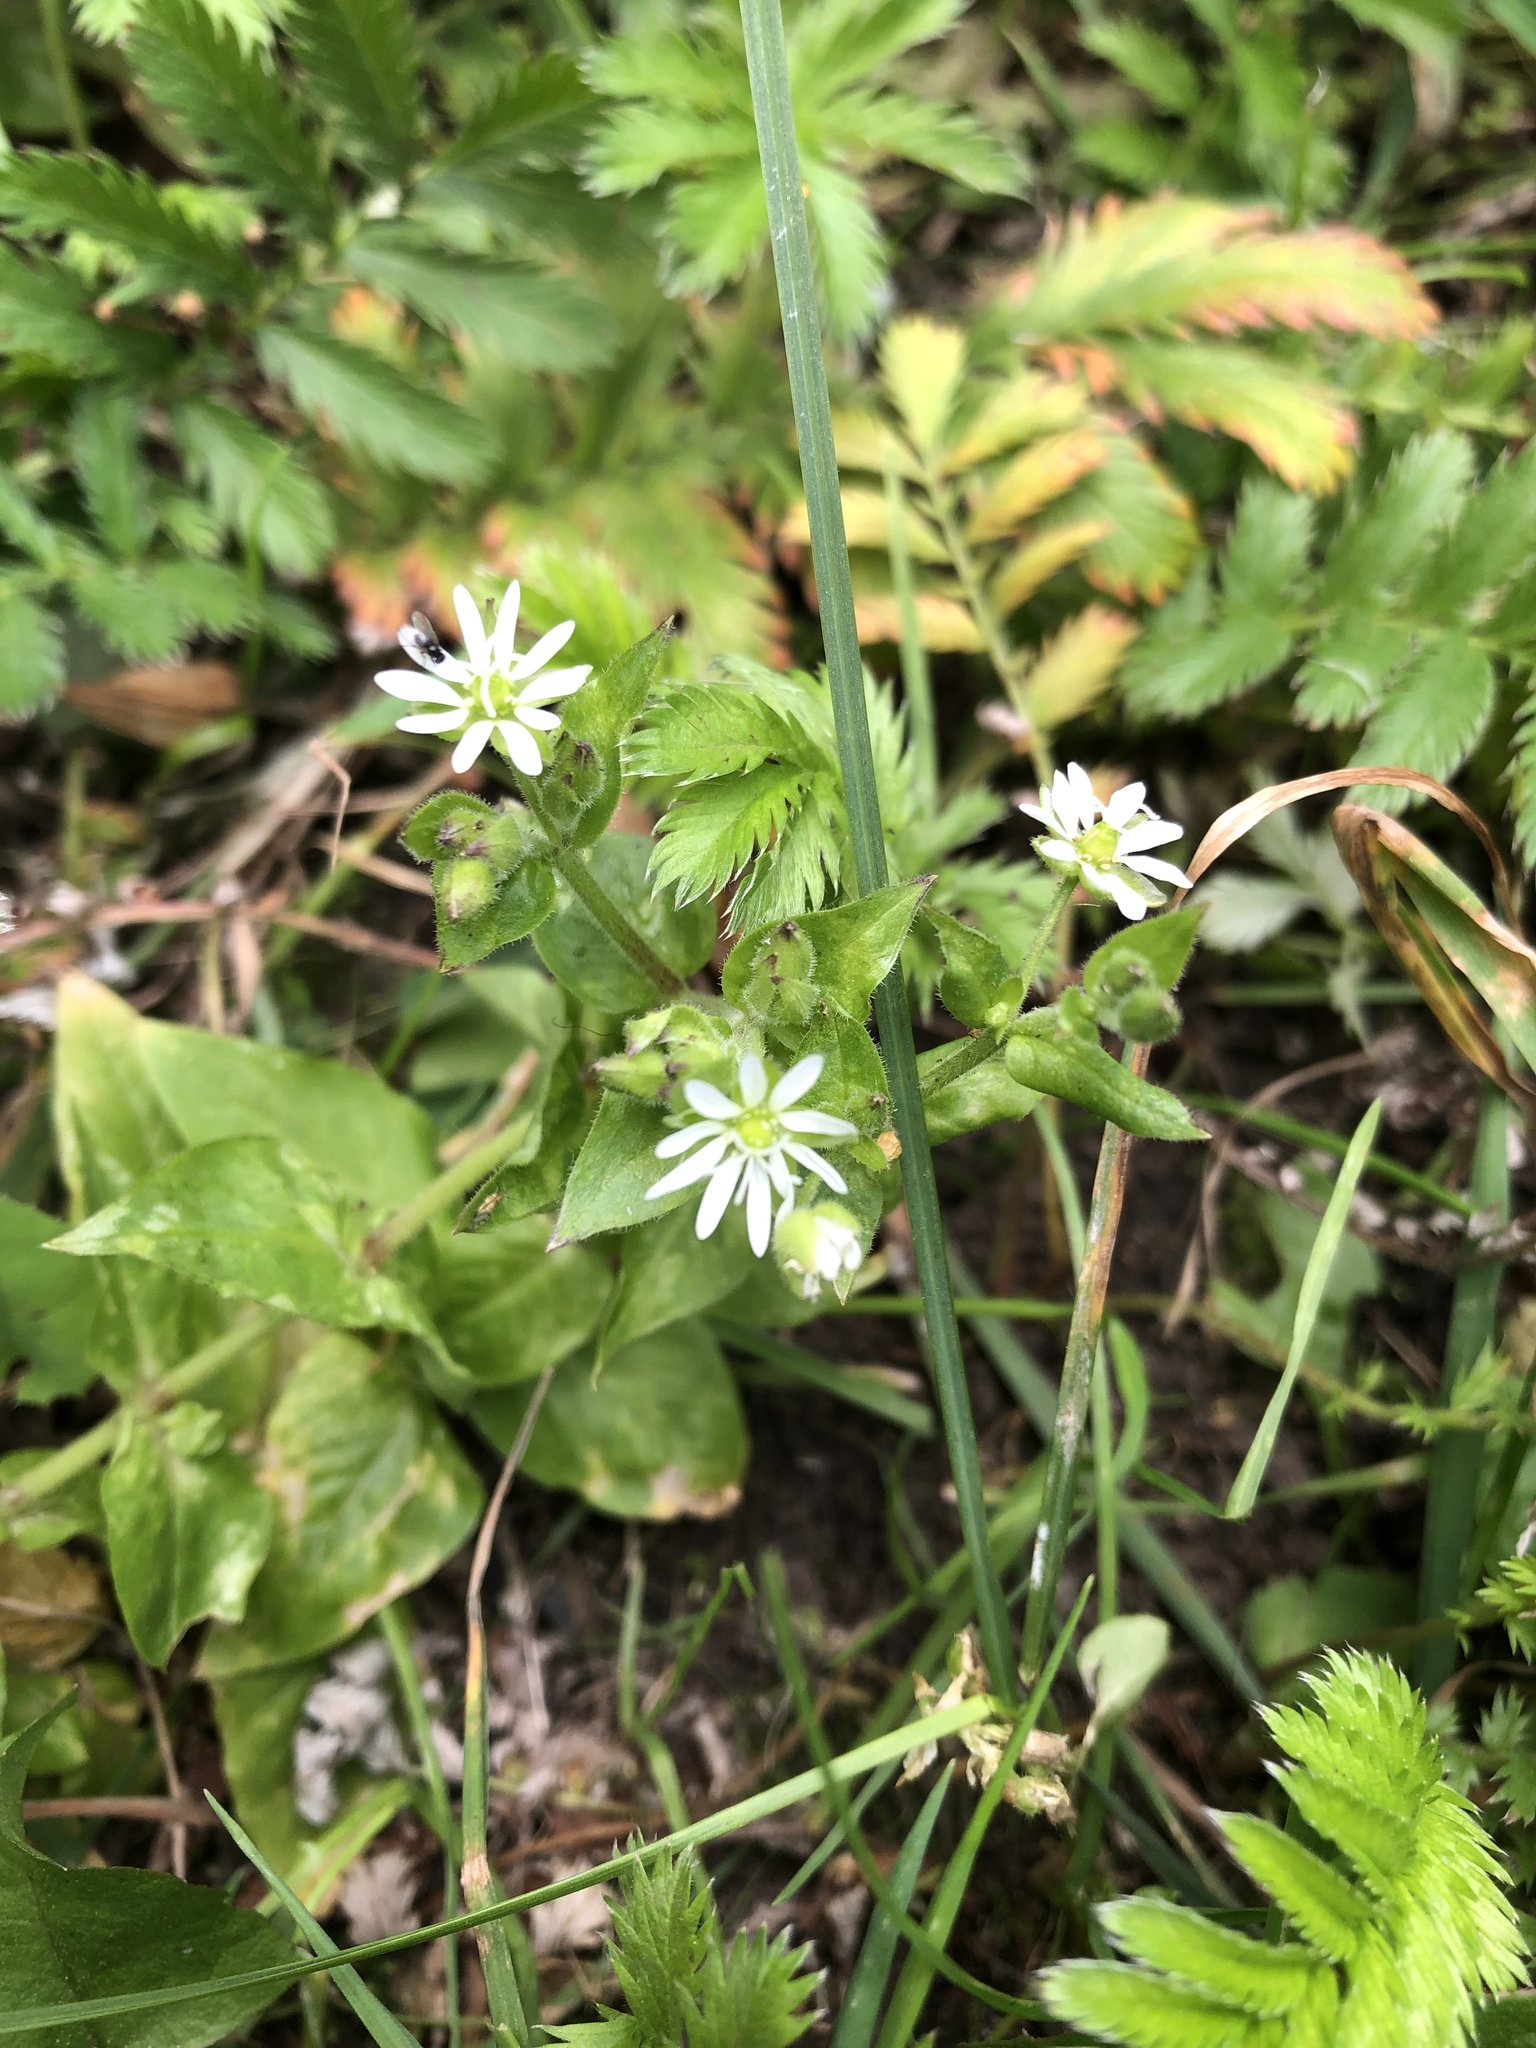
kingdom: Plantae
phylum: Tracheophyta
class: Magnoliopsida
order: Caryophyllales
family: Caryophyllaceae
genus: Stellaria
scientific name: Stellaria aquatica
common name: Water chickweed
